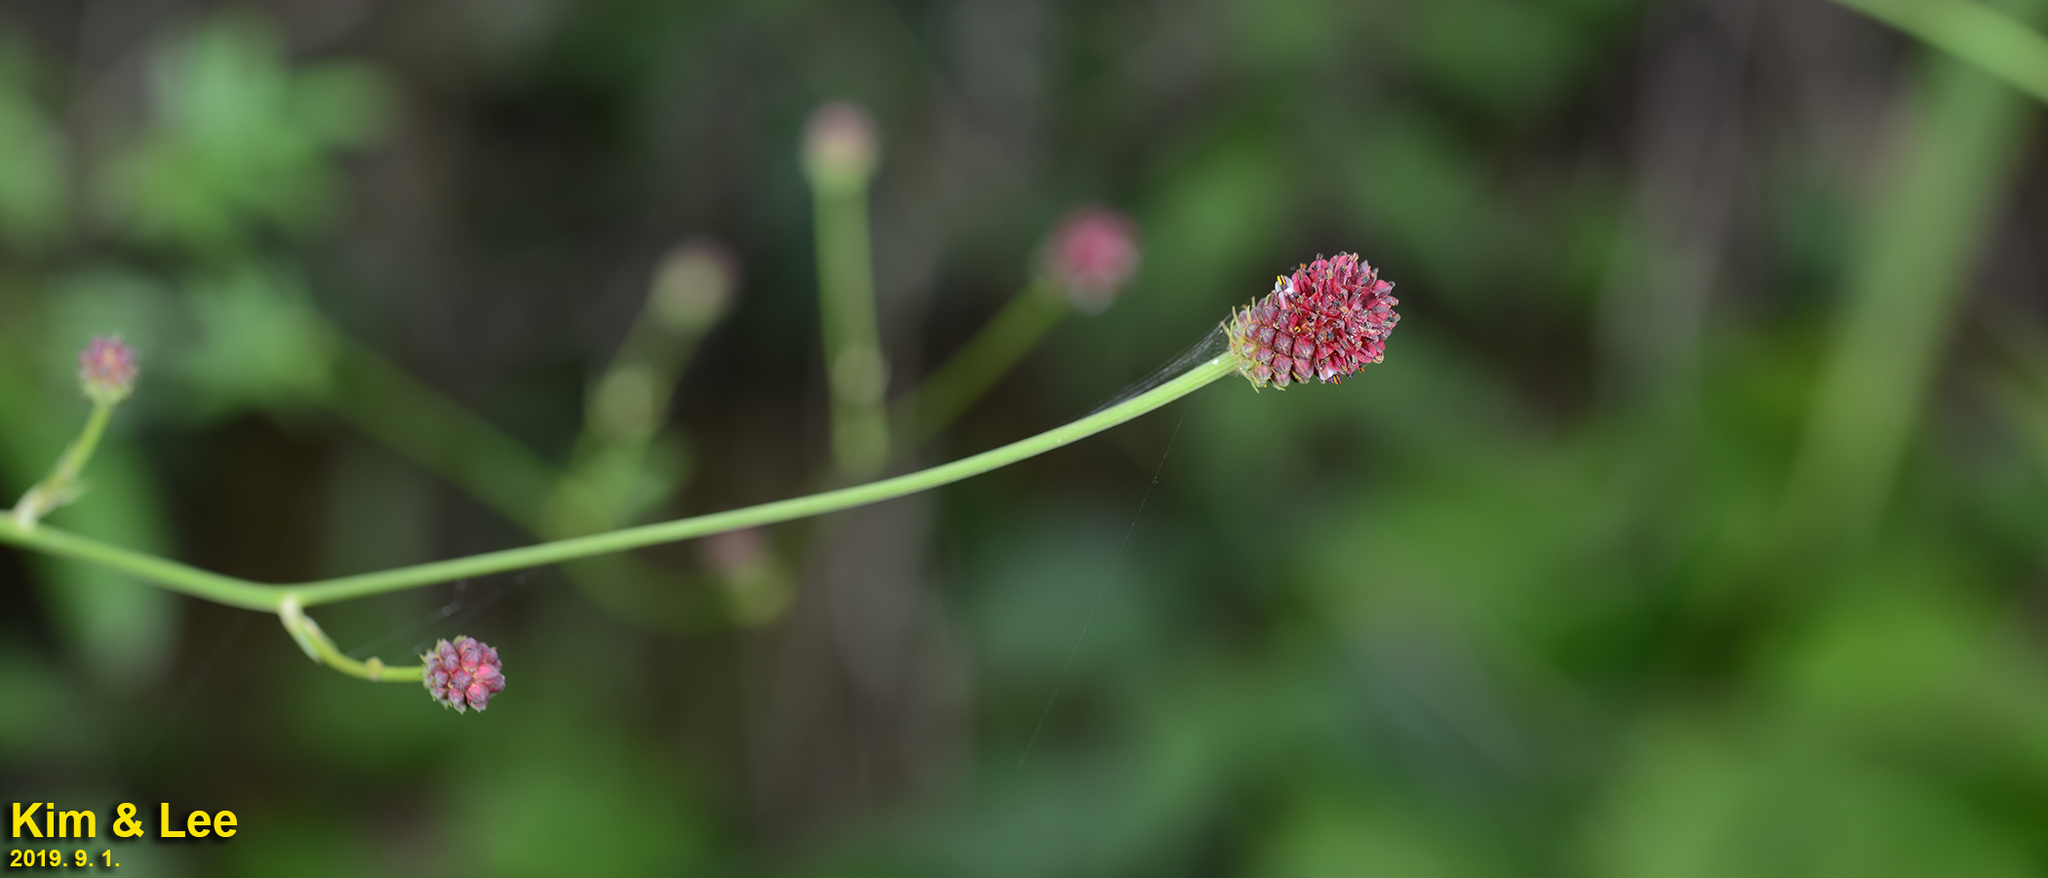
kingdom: Plantae
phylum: Tracheophyta
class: Magnoliopsida
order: Rosales
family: Rosaceae
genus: Sanguisorba
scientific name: Sanguisorba officinalis
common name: Great burnet
